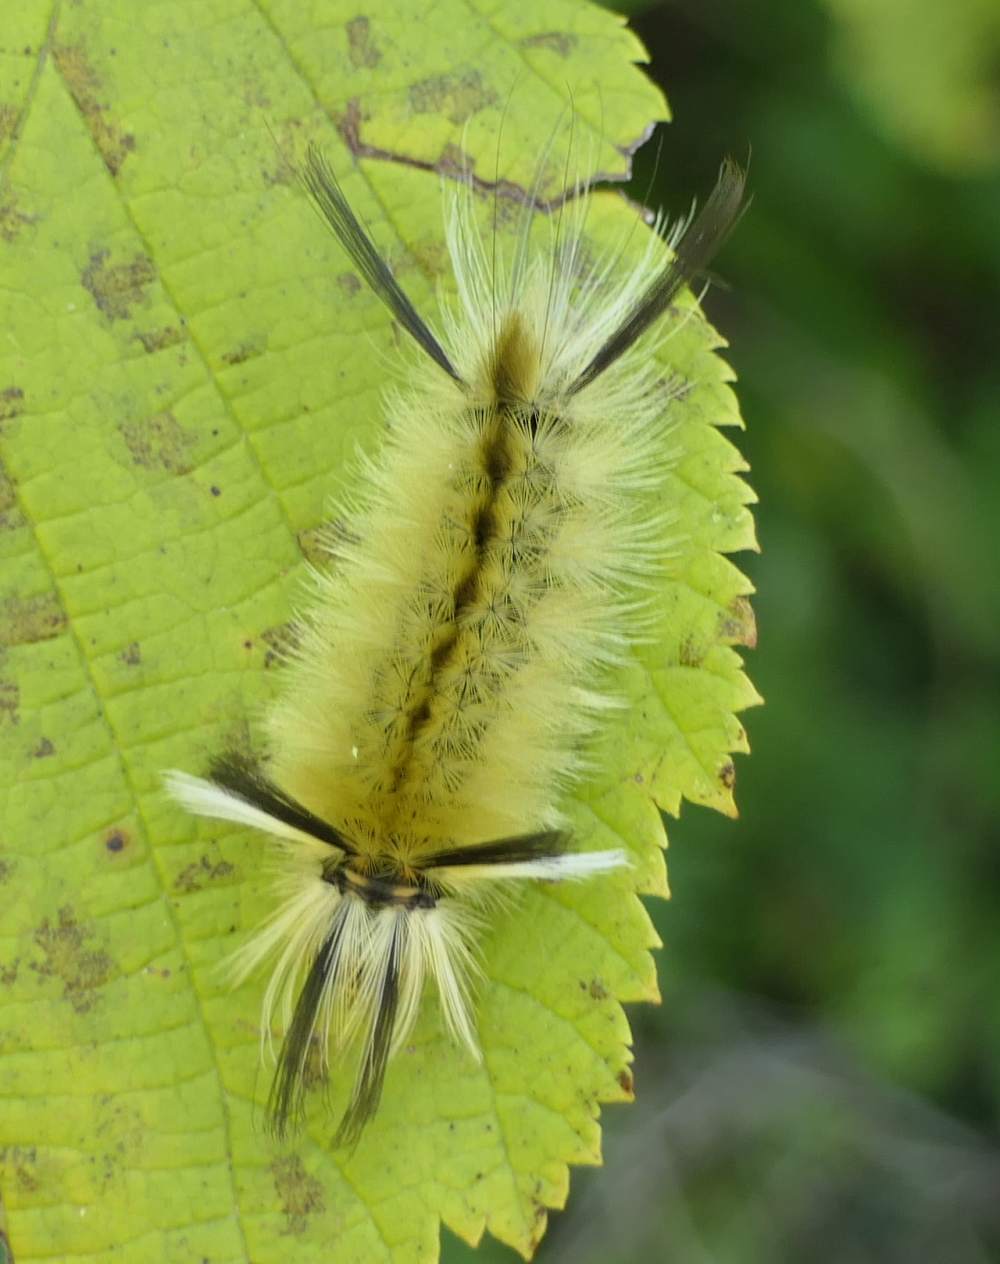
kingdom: Animalia
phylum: Arthropoda
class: Insecta
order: Lepidoptera
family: Erebidae
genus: Halysidota
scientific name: Halysidota tessellaris
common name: Banded tussock moth
